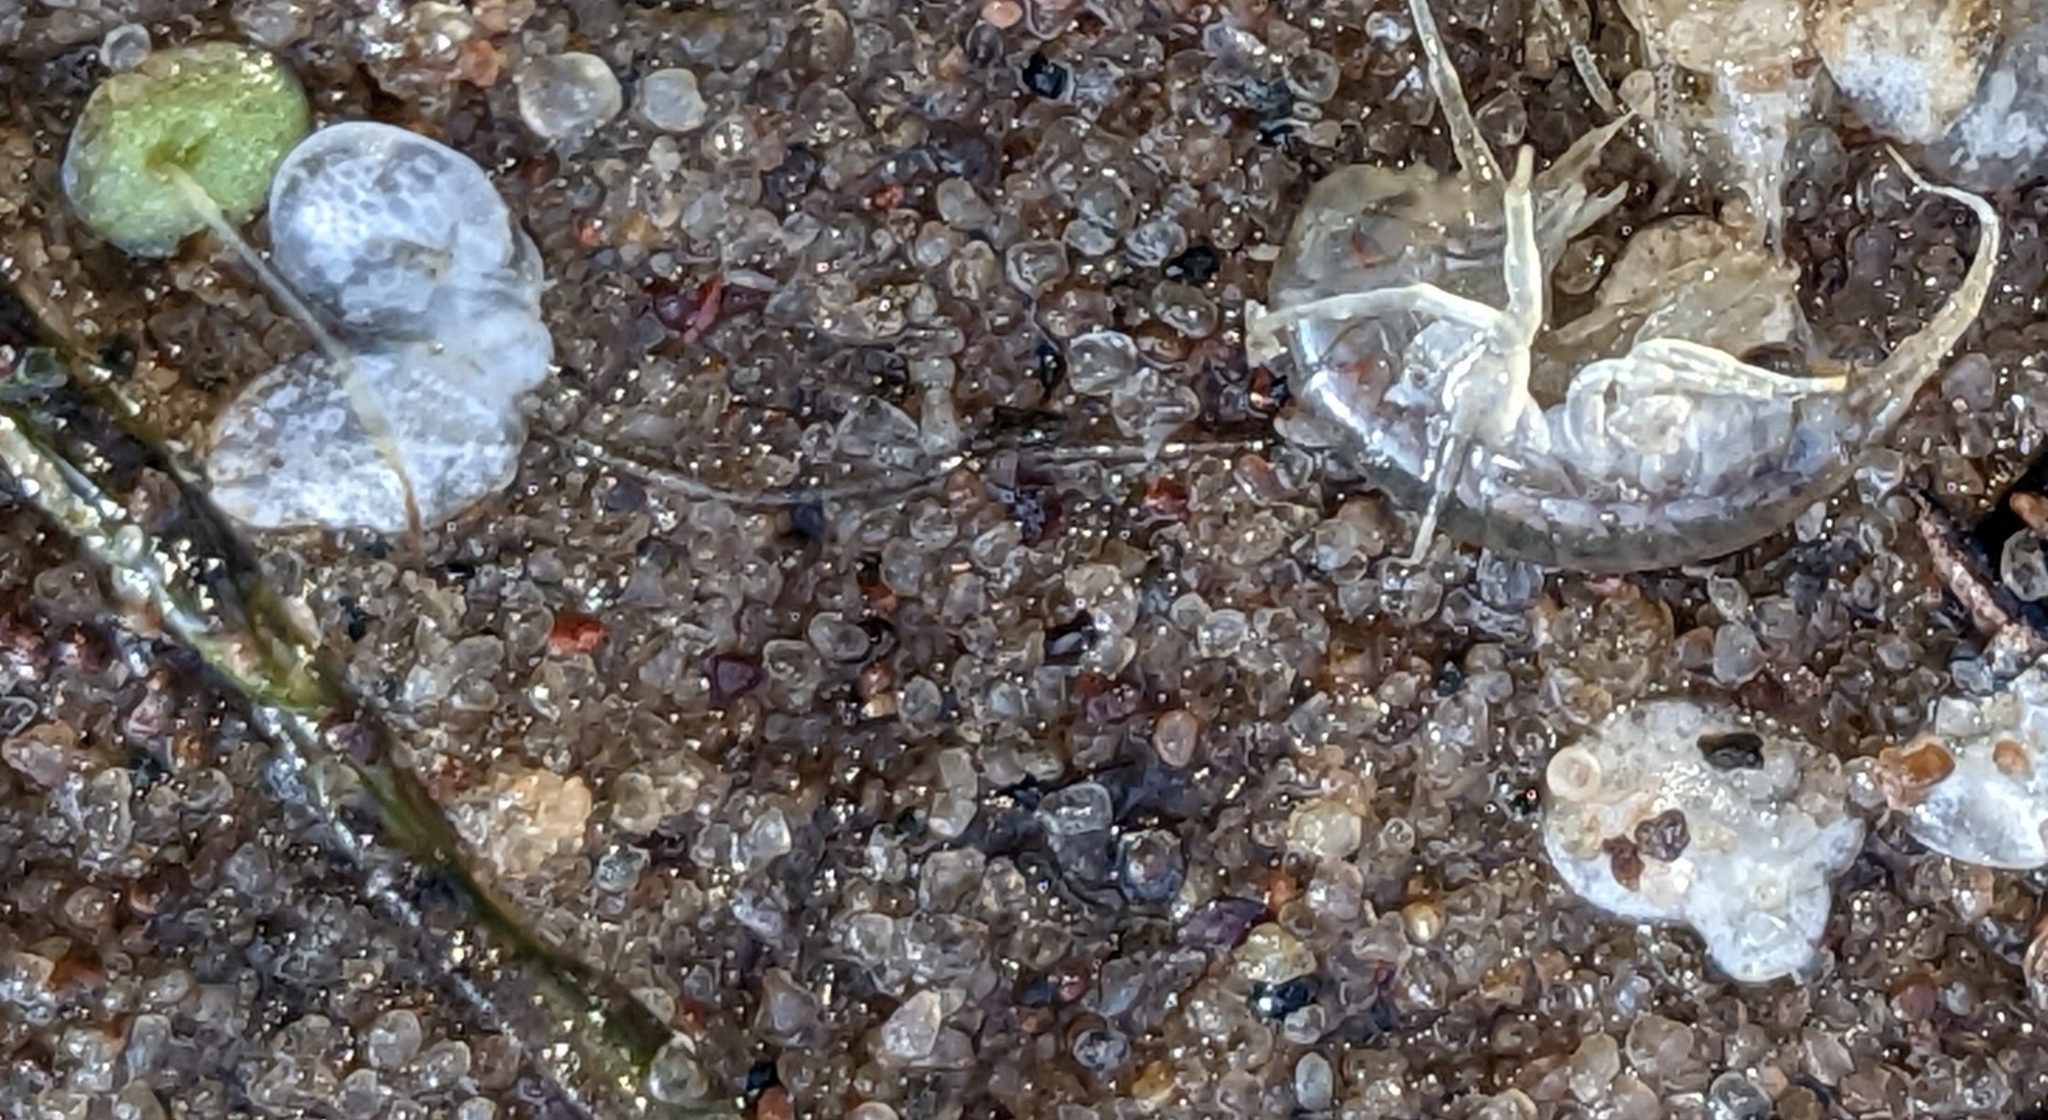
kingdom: Animalia
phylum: Arthropoda
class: Malacostraca
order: Amphipoda
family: Gammaridae
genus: Gammarus
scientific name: Gammarus fasciatus
